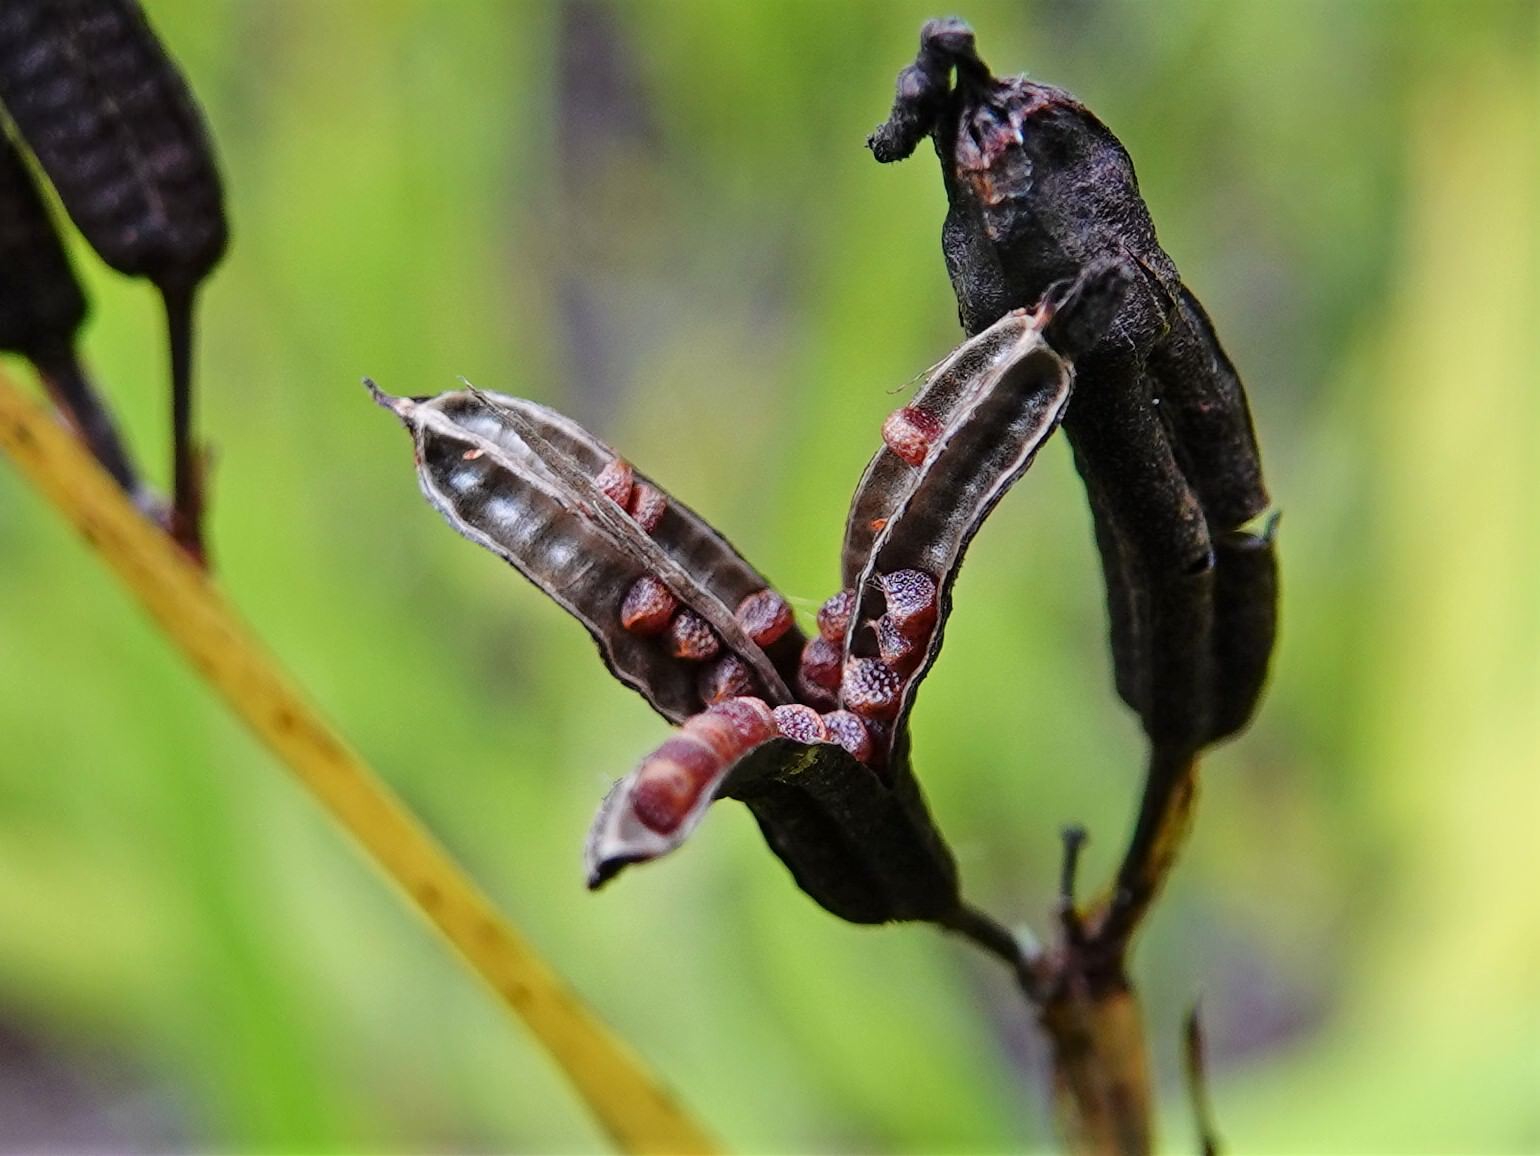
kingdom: Plantae
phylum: Tracheophyta
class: Liliopsida
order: Asparagales
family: Iridaceae
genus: Aristea
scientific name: Aristea ecklonii
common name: Blue corn-lily
